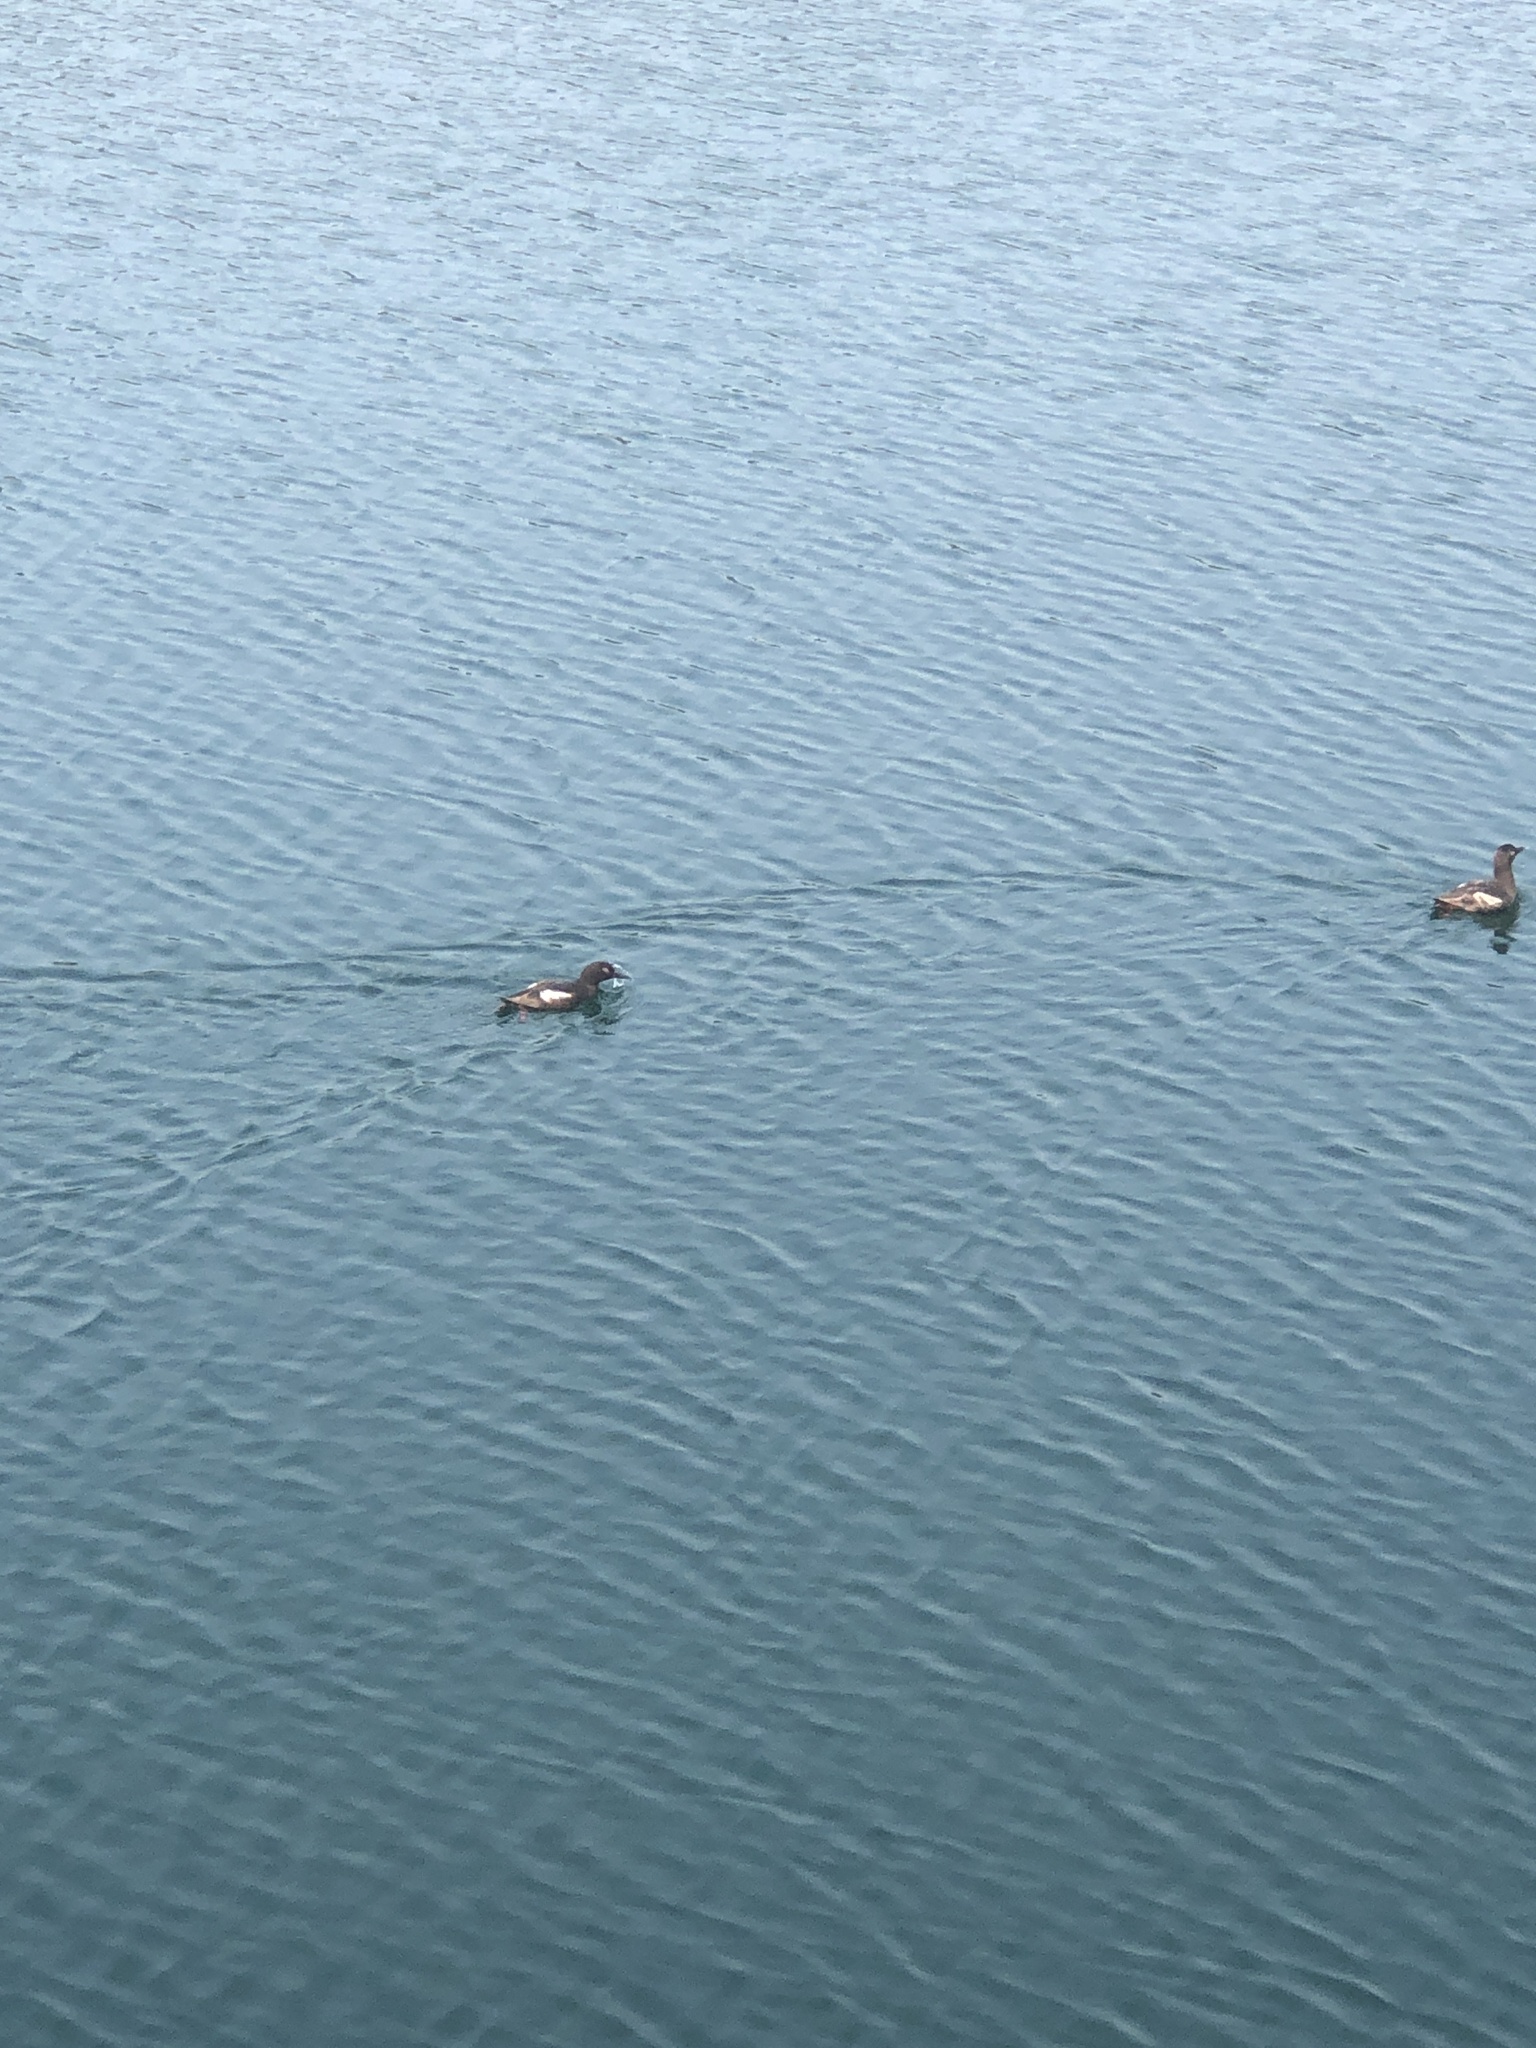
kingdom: Animalia
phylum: Chordata
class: Aves
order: Charadriiformes
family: Alcidae
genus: Cepphus
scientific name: Cepphus columba
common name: Pigeon guillemot
